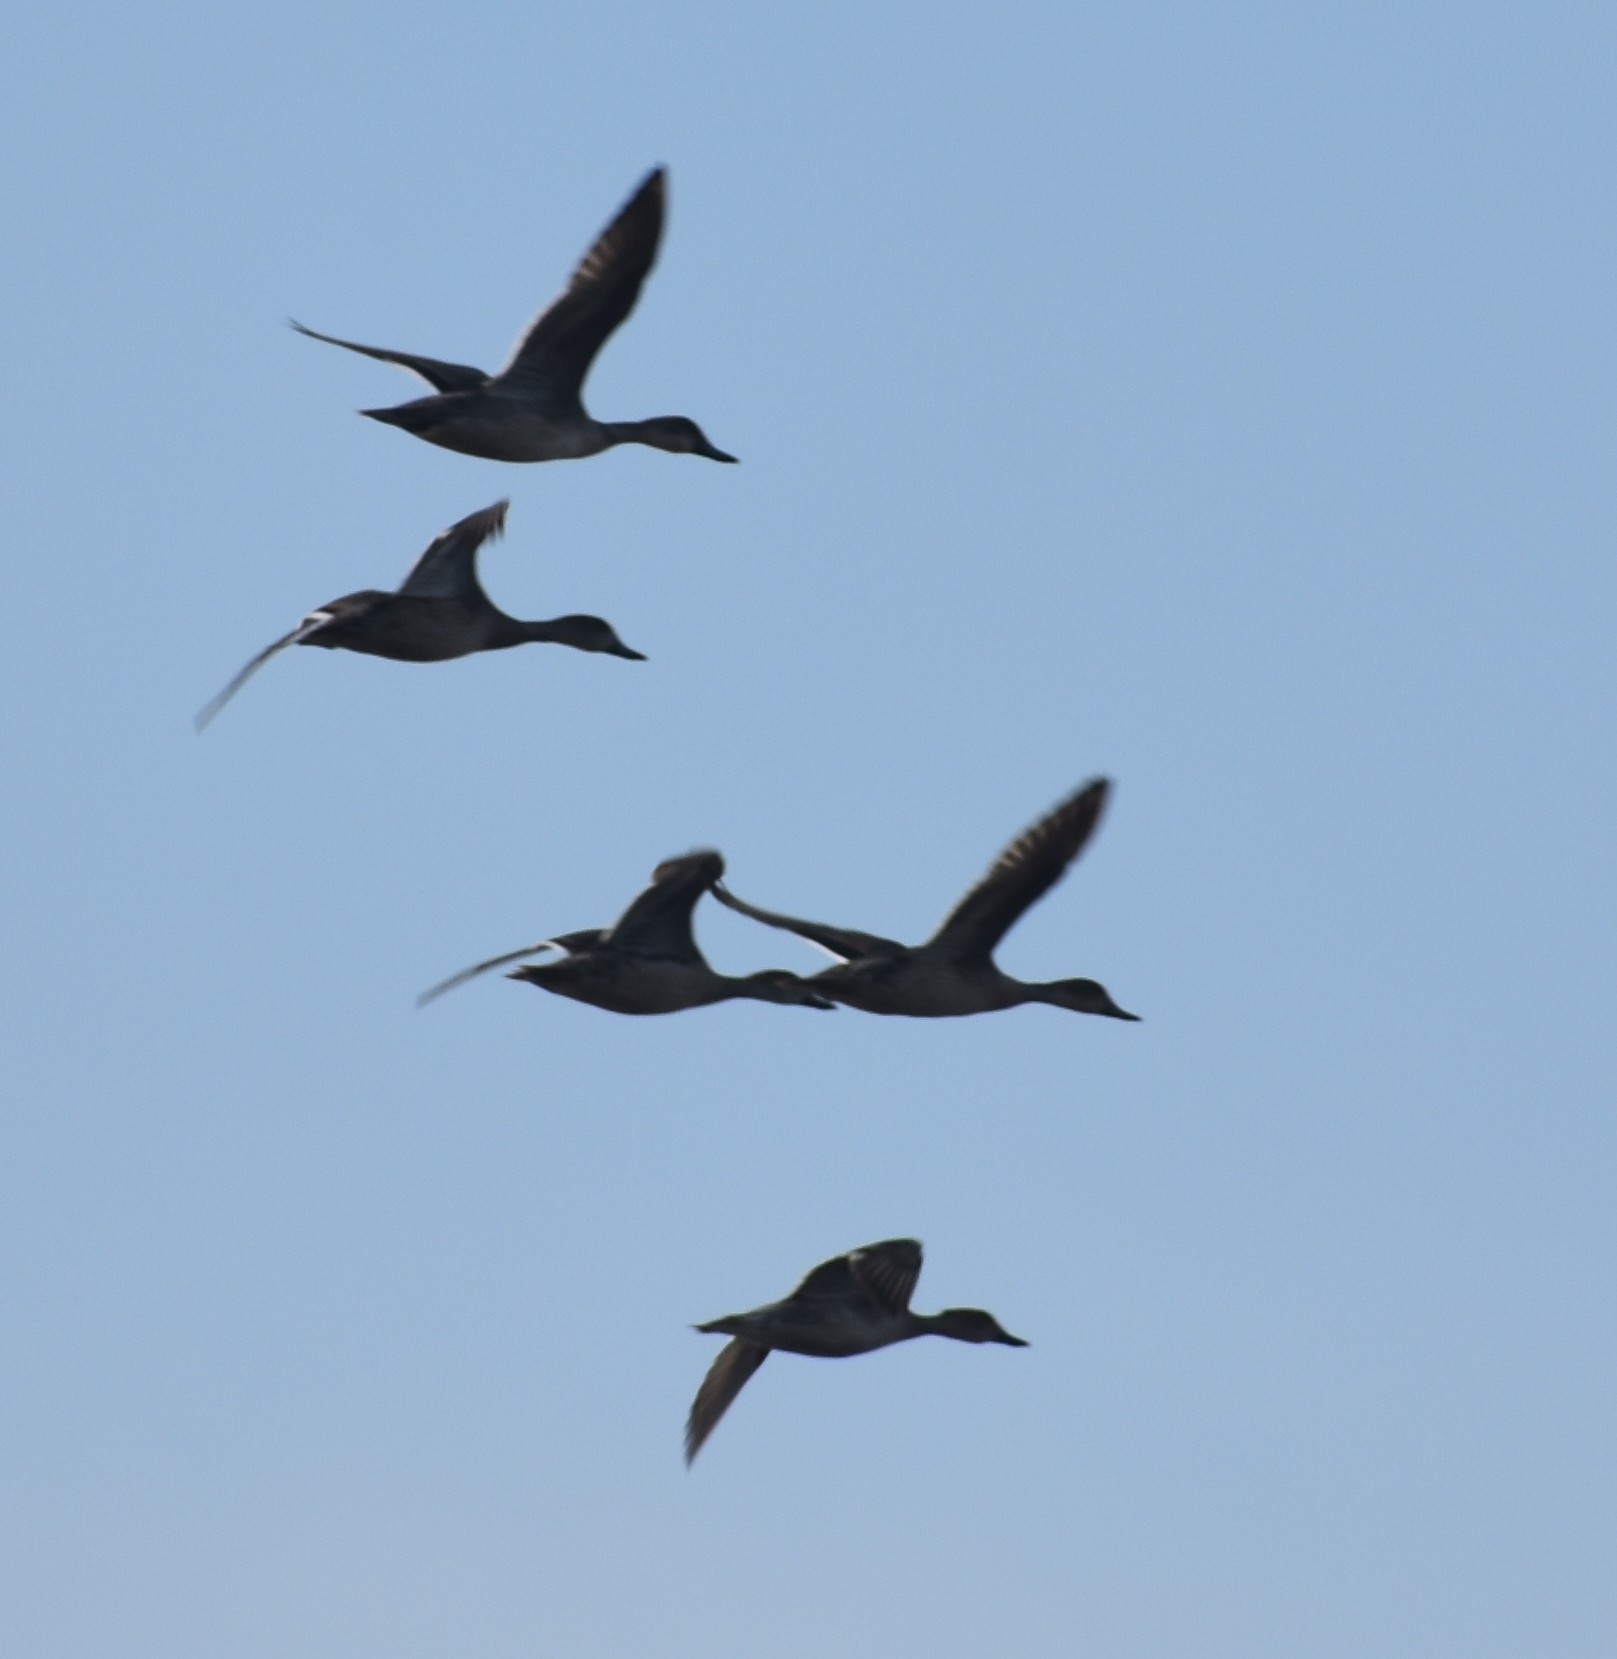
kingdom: Animalia
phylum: Chordata
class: Aves
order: Anseriformes
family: Anatidae
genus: Anas
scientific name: Anas acuta
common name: Northern pintail
